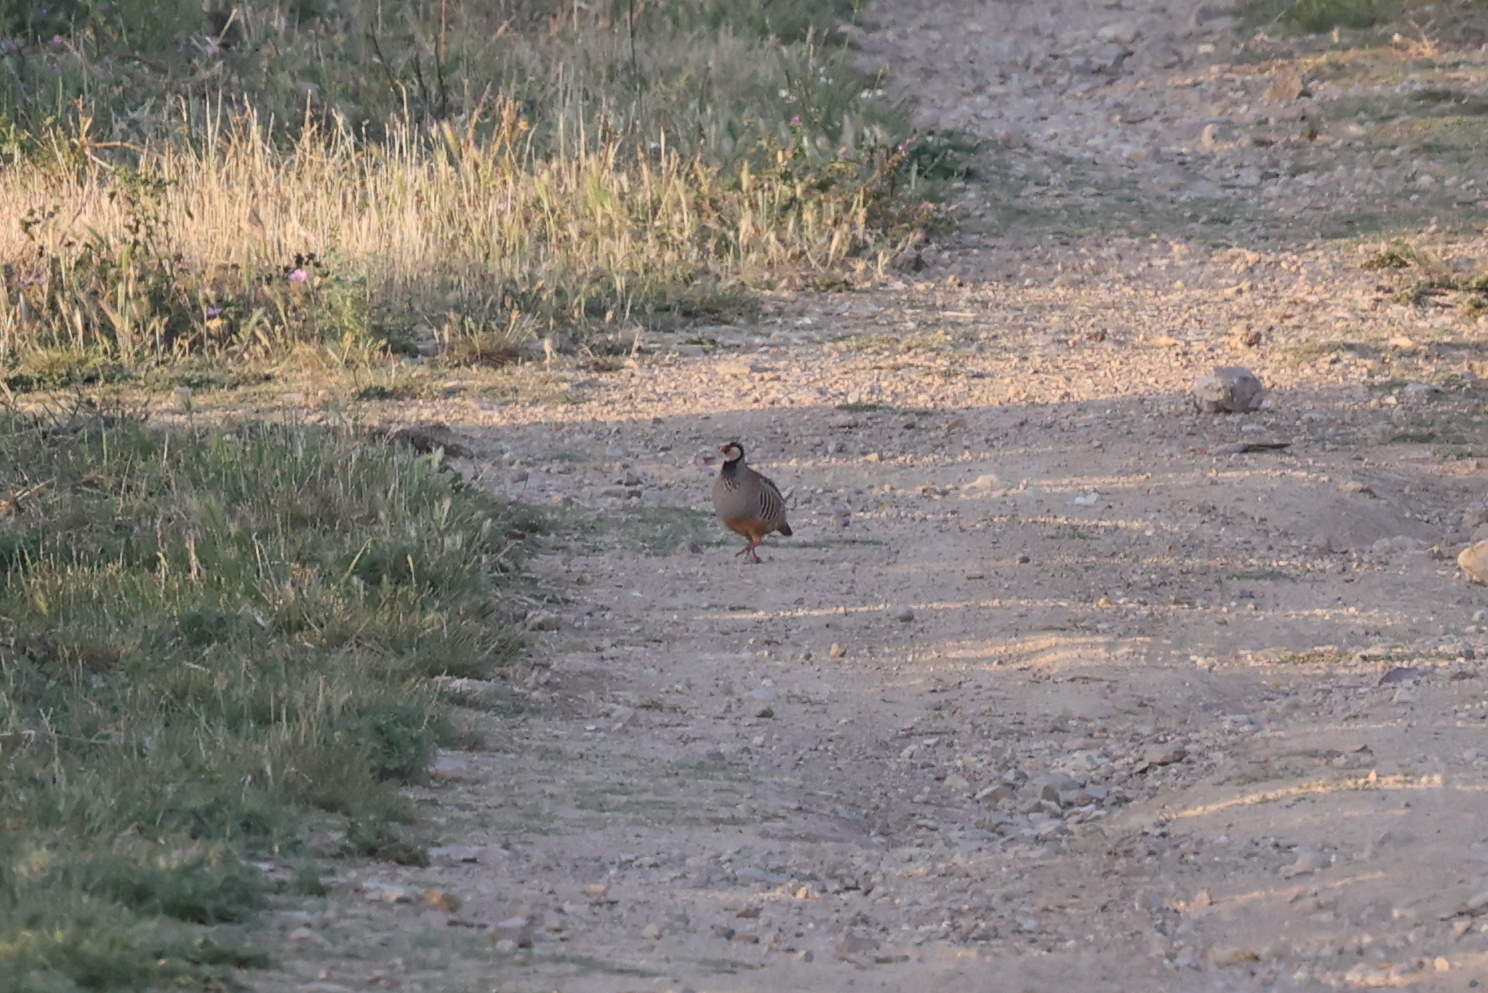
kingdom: Animalia
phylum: Chordata
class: Aves
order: Galliformes
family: Phasianidae
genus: Alectoris
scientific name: Alectoris rufa
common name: Red-legged partridge
